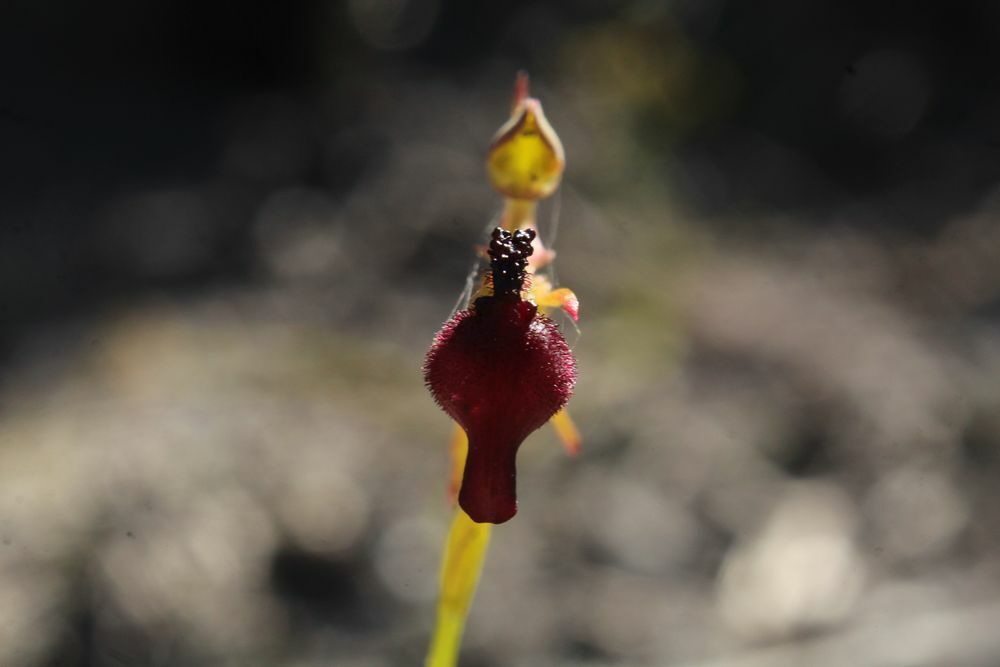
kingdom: Plantae
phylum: Tracheophyta
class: Liliopsida
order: Asparagales
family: Orchidaceae
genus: Drakaea
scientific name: Drakaea glyptodon
